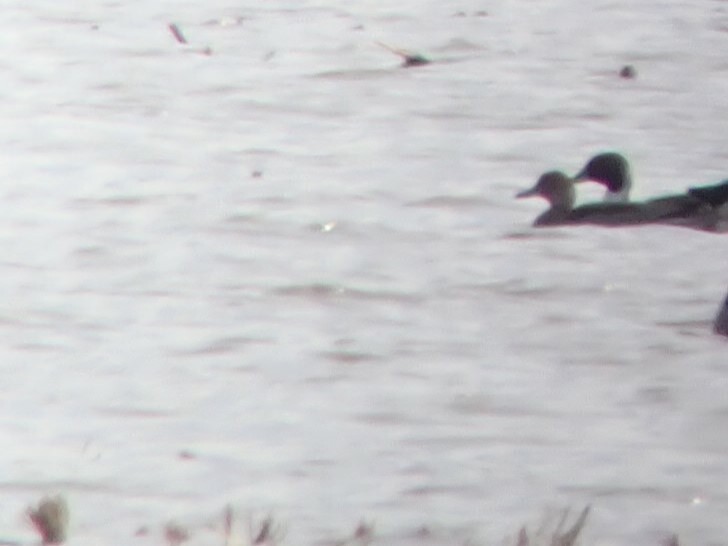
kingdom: Animalia
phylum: Chordata
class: Aves
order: Anseriformes
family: Anatidae
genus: Anas
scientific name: Anas acuta
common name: Northern pintail
